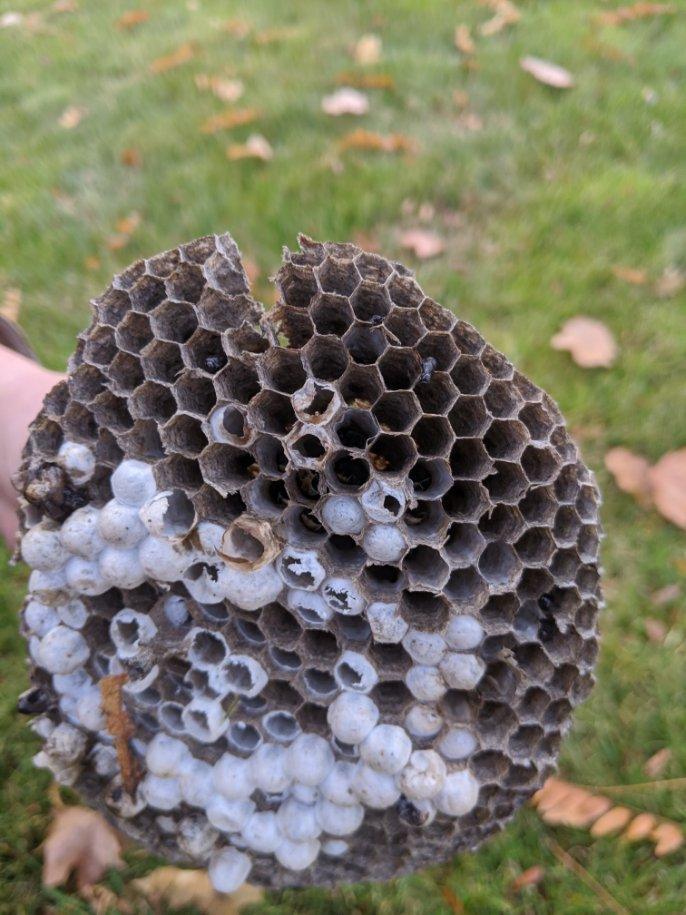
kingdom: Animalia
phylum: Arthropoda
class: Insecta
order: Hymenoptera
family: Vespidae
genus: Dolichovespula
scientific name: Dolichovespula
